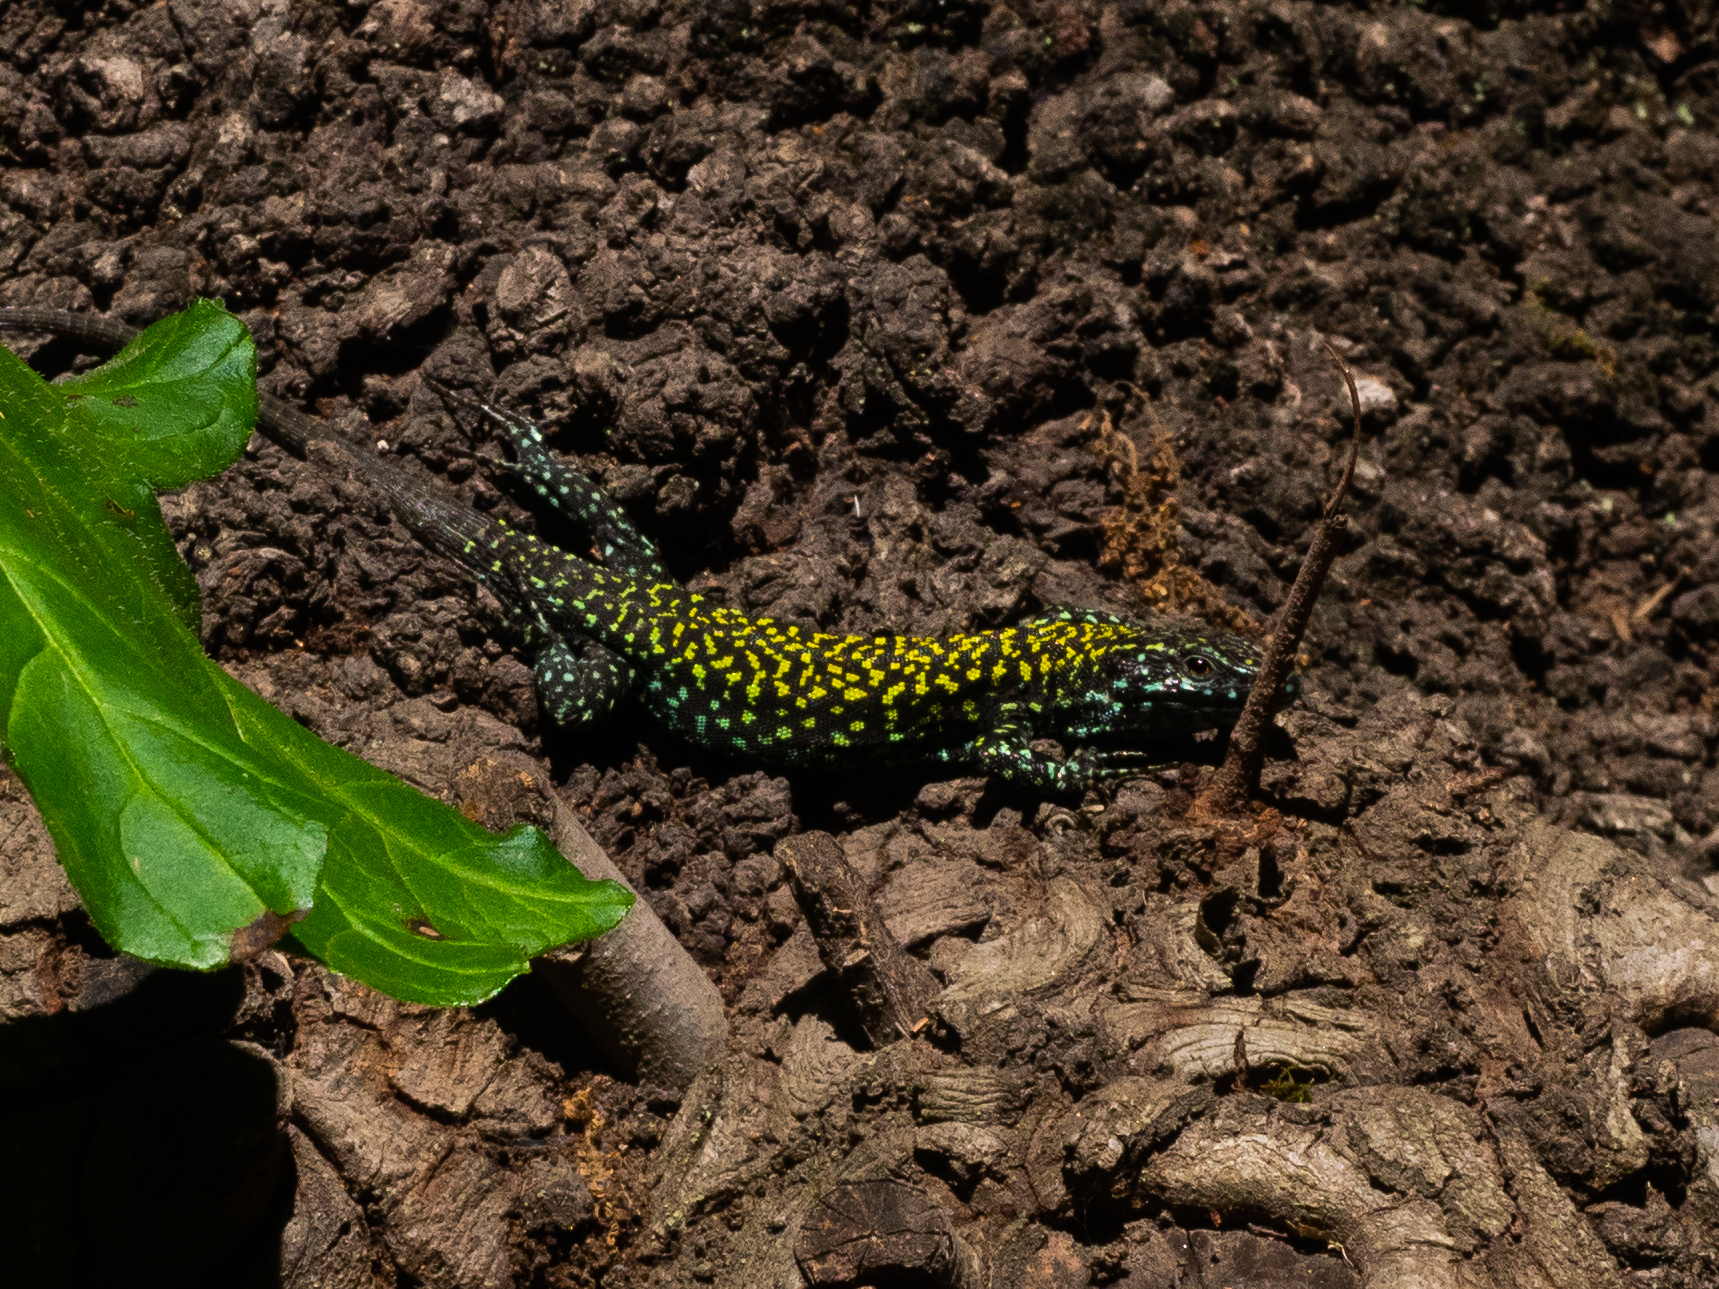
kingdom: Animalia
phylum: Chordata
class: Squamata
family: Lacertidae
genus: Podarcis
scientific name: Podarcis muralis
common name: Common wall lizard
